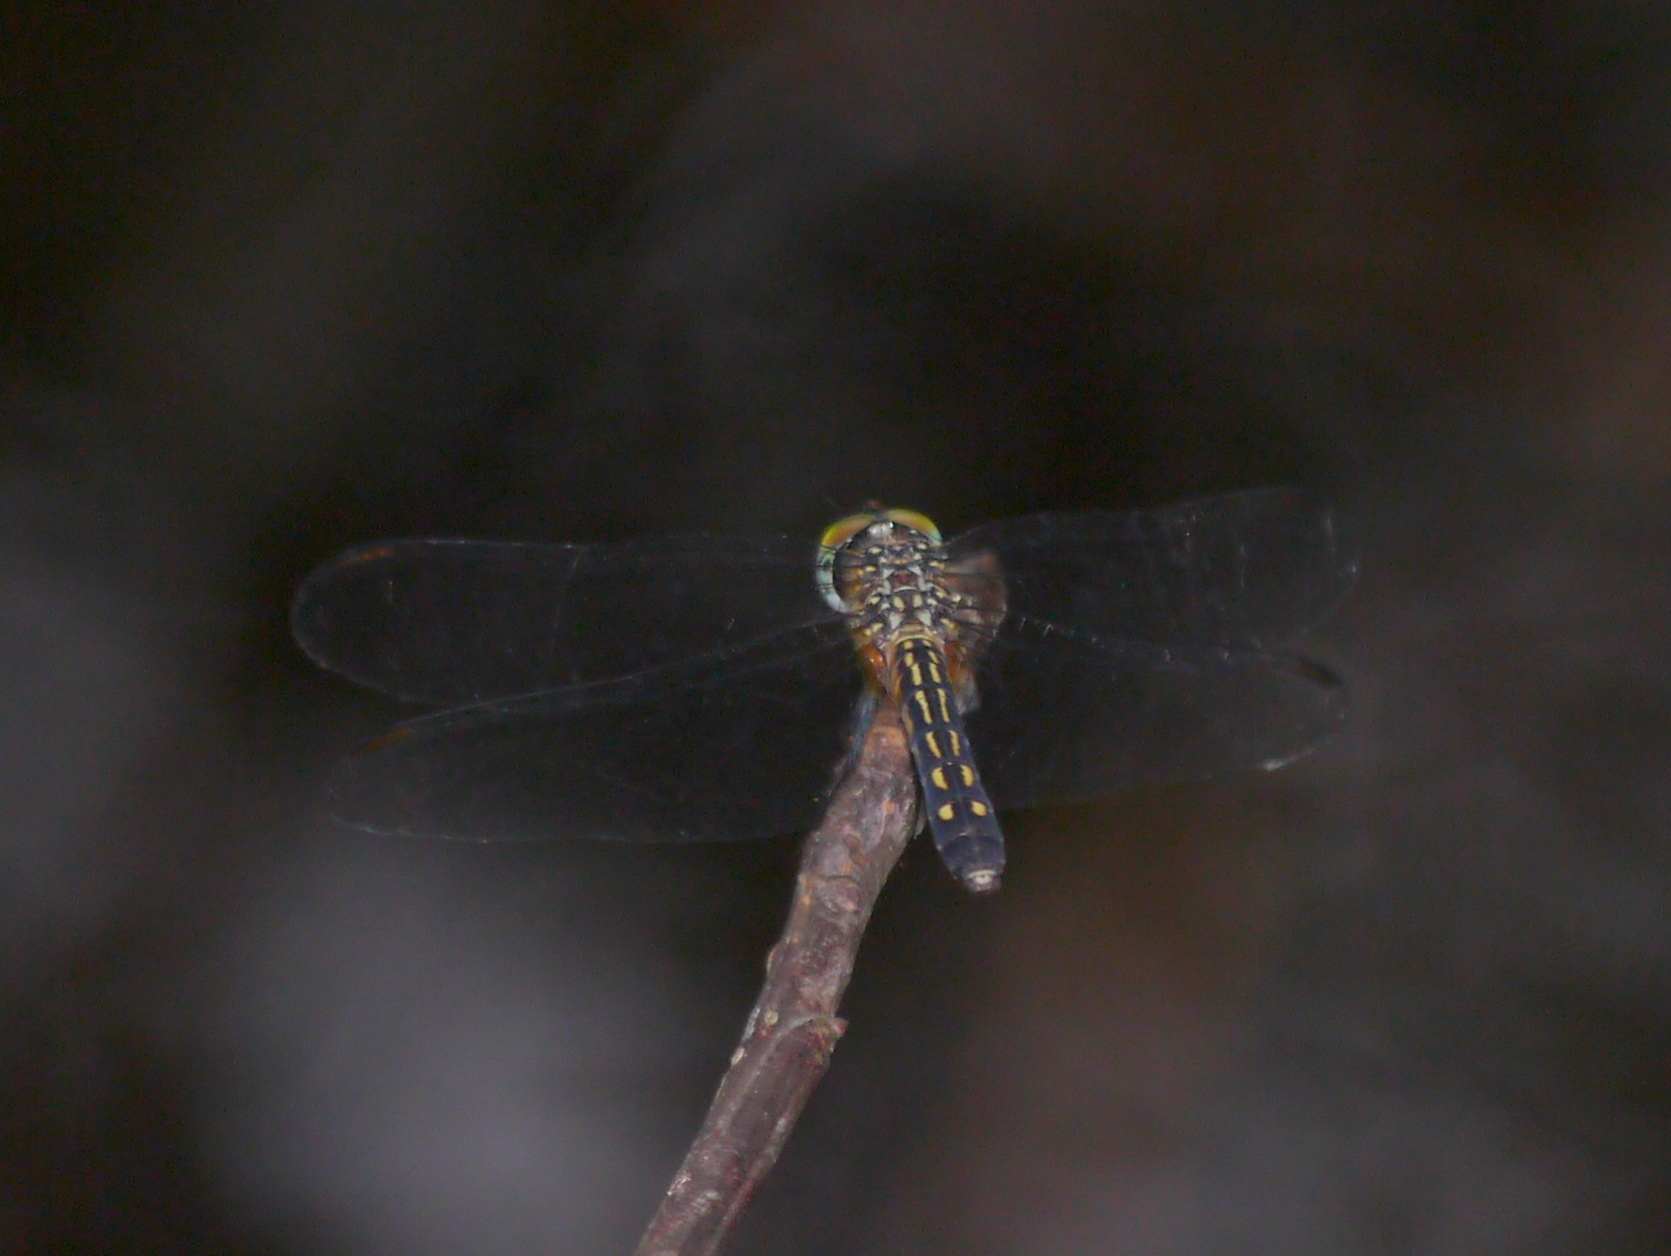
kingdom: Animalia
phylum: Arthropoda
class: Insecta
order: Odonata
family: Libellulidae
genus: Pachydiplax
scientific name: Pachydiplax longipennis
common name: Blue dasher
